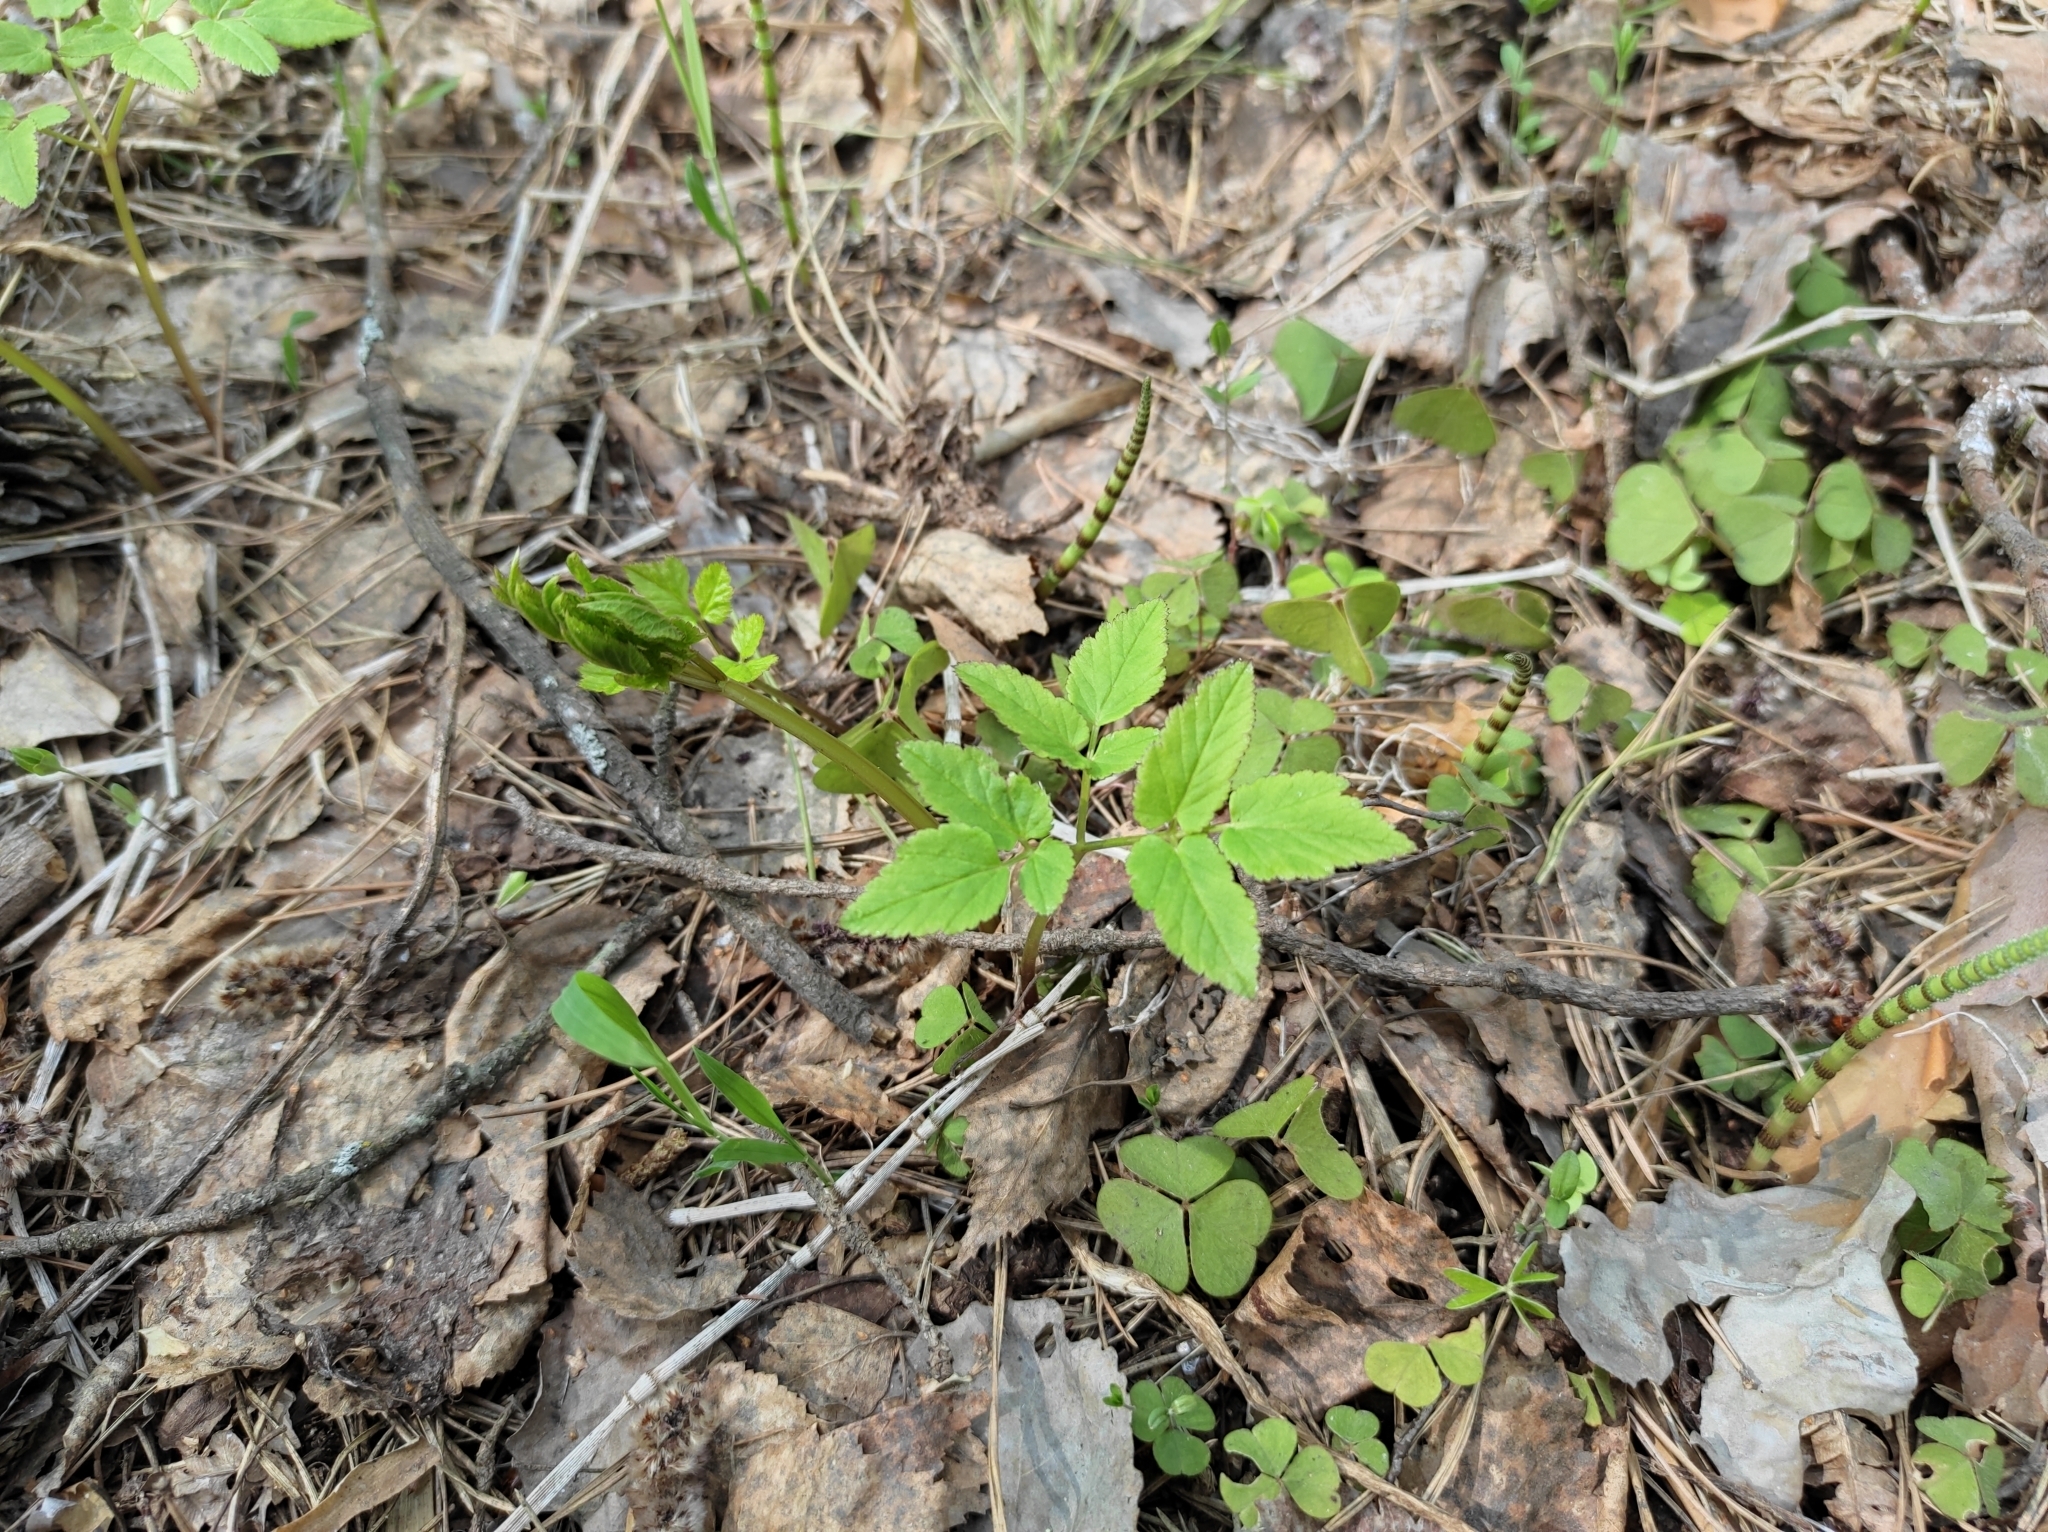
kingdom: Plantae
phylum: Tracheophyta
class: Magnoliopsida
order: Apiales
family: Apiaceae
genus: Aegopodium
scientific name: Aegopodium podagraria
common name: Ground-elder
